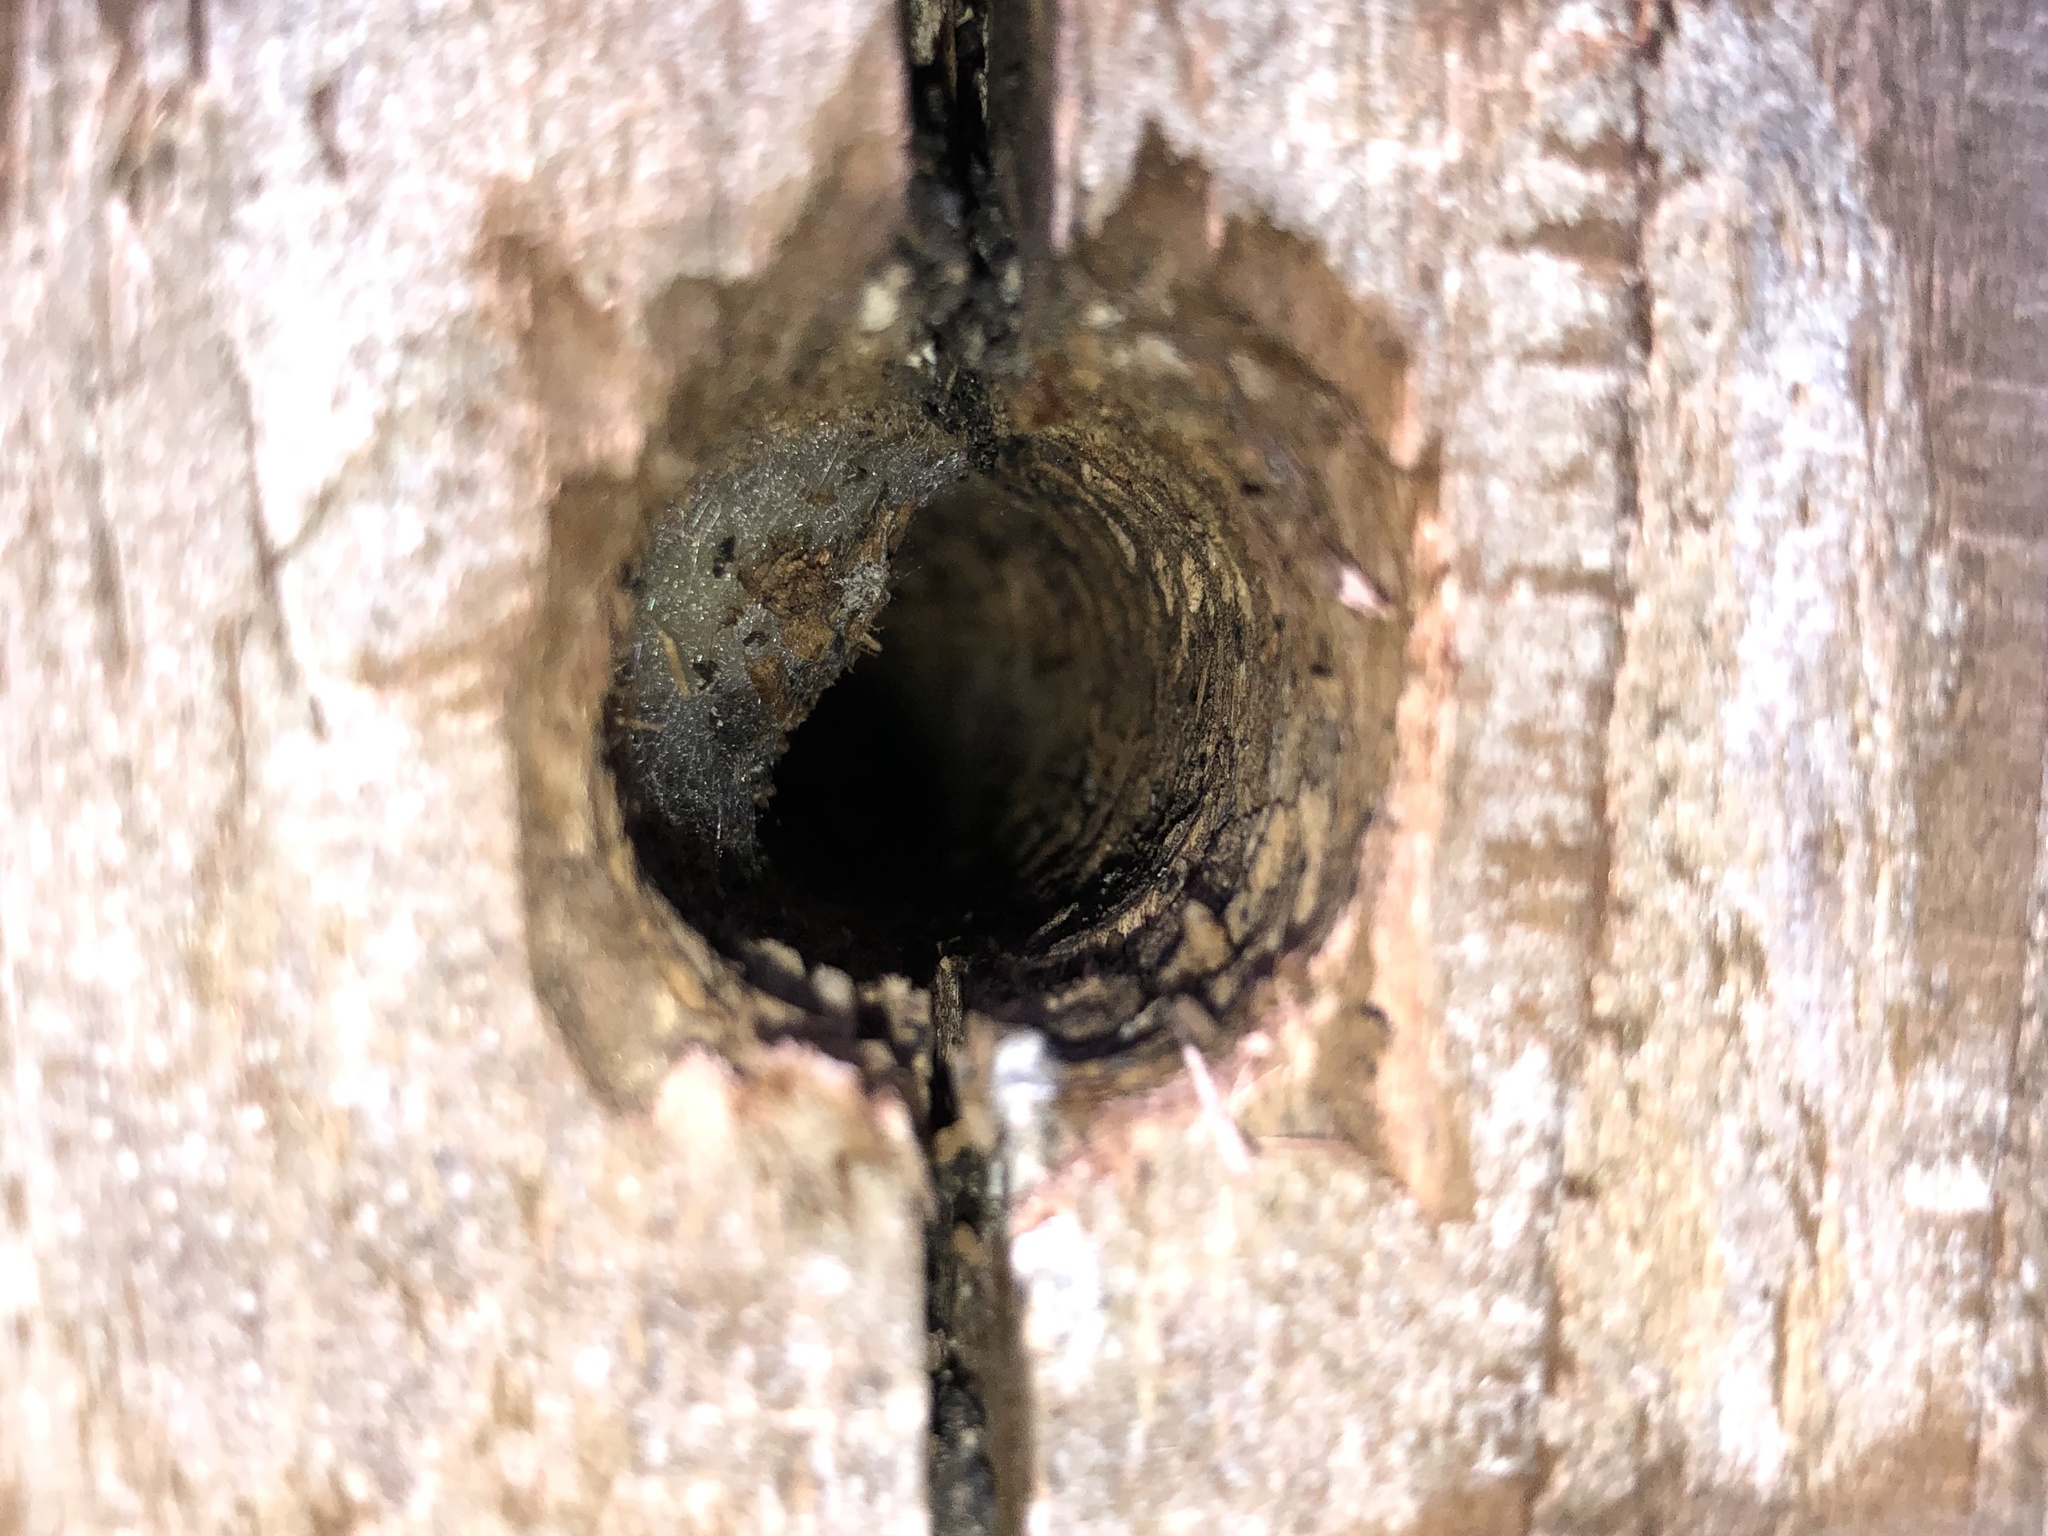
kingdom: Animalia
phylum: Arthropoda
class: Insecta
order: Hymenoptera
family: Vespidae
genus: Vespula
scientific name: Vespula germanica
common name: German wasp
